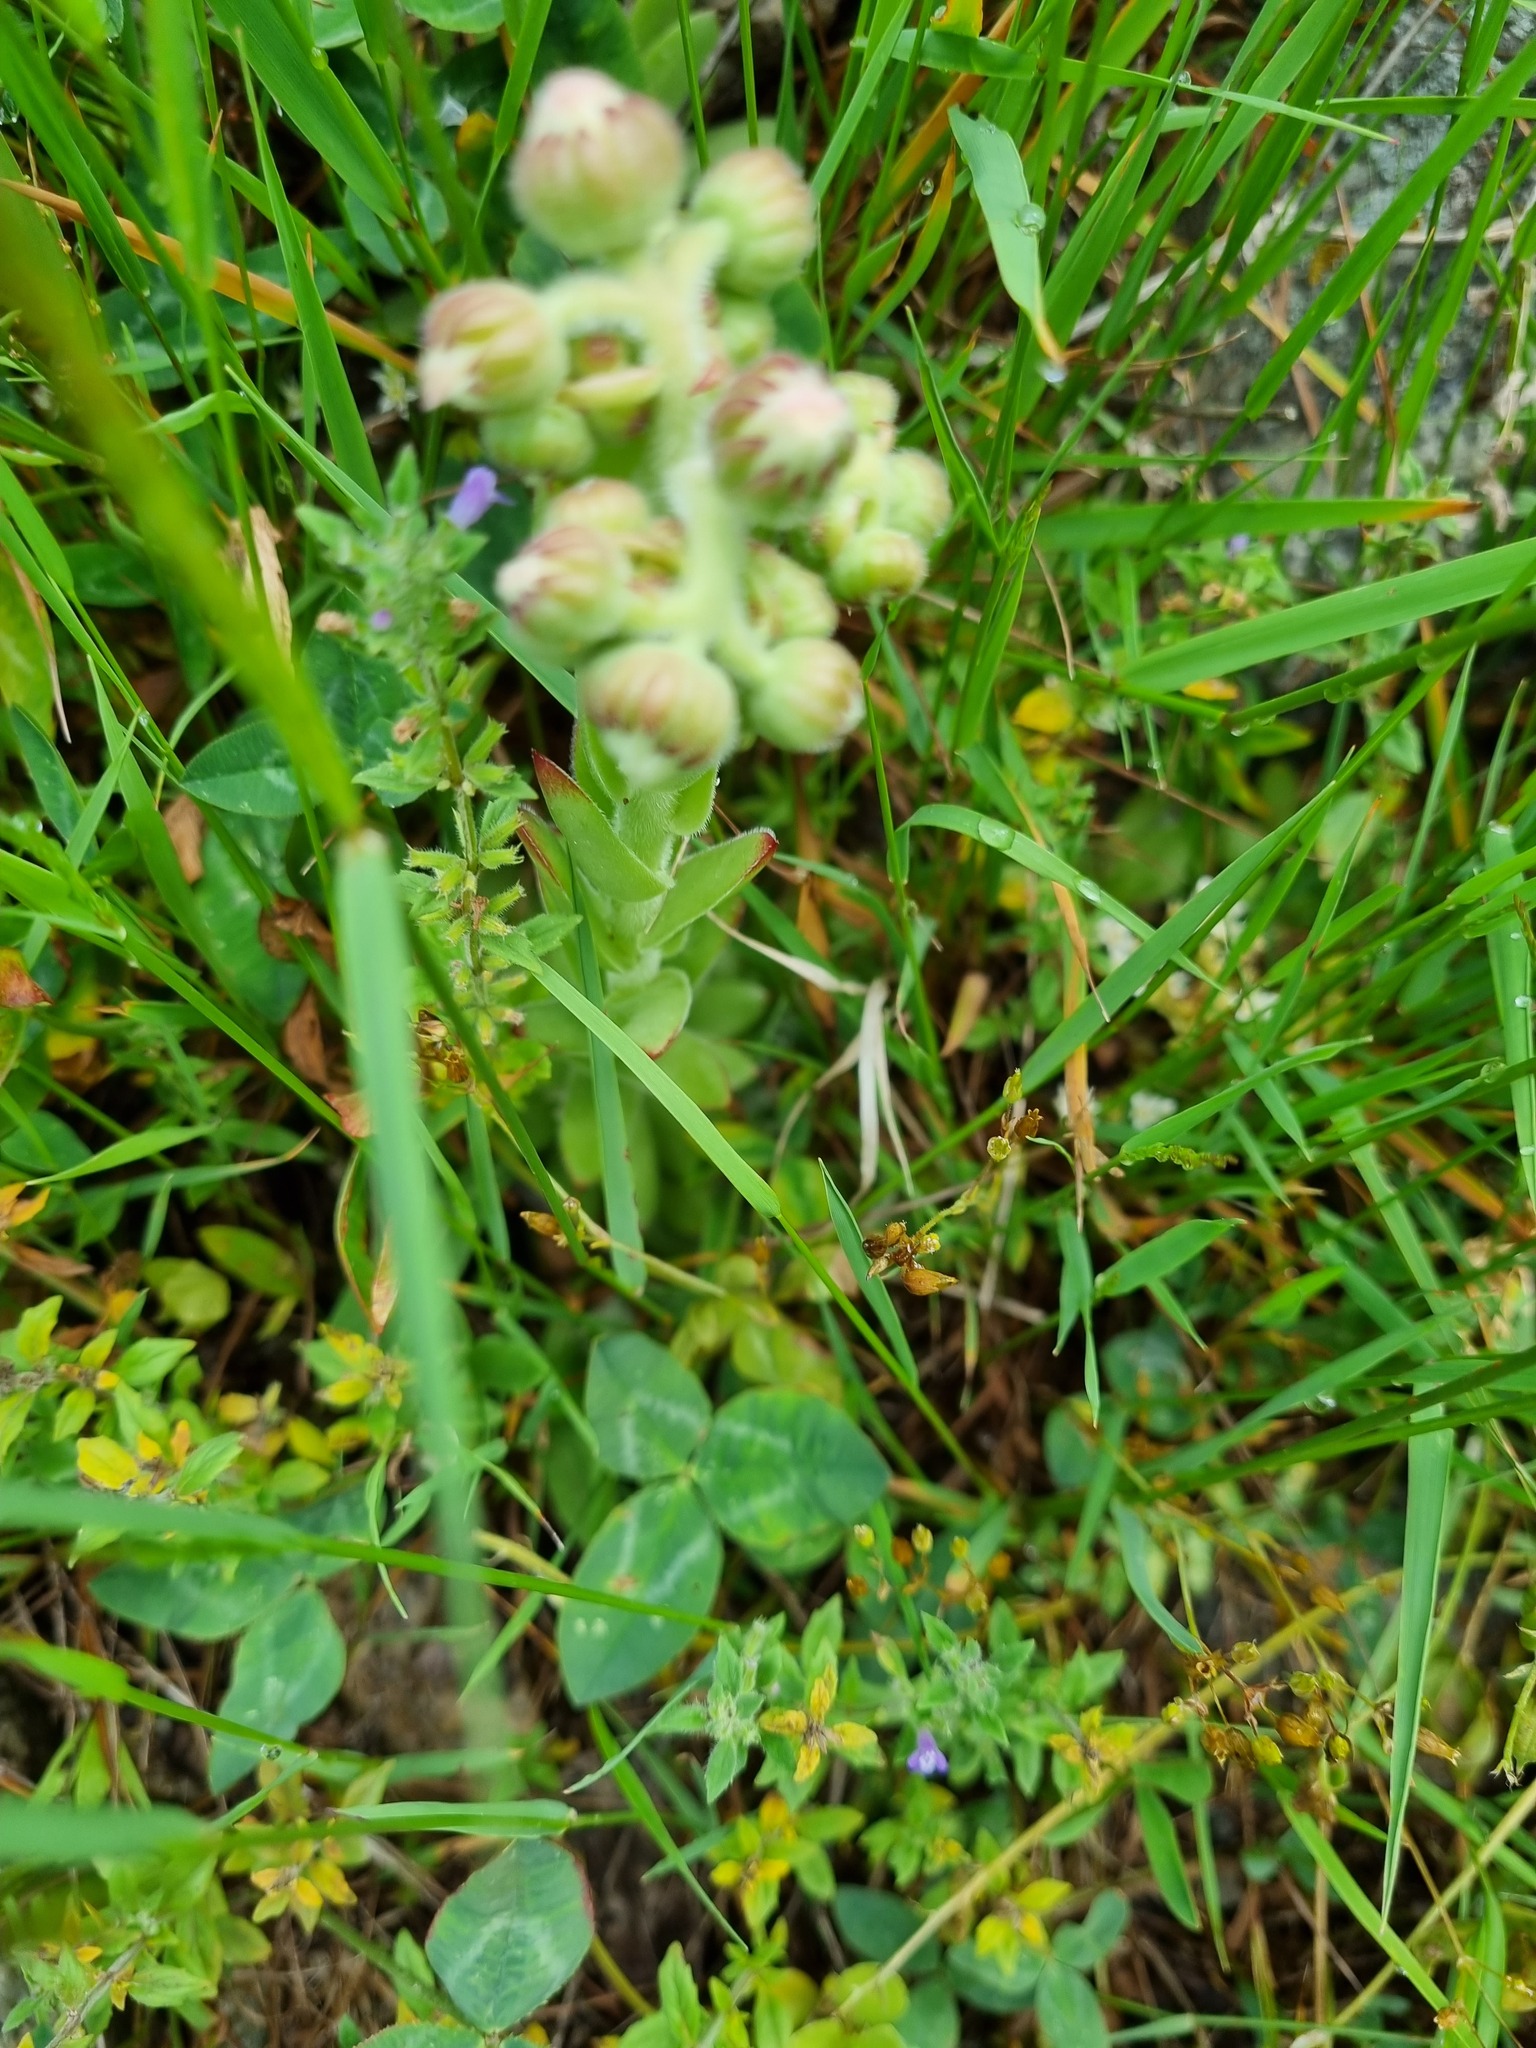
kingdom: Plantae
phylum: Tracheophyta
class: Magnoliopsida
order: Saxifragales
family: Crassulaceae
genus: Sempervivum
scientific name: Sempervivum caucasicum
